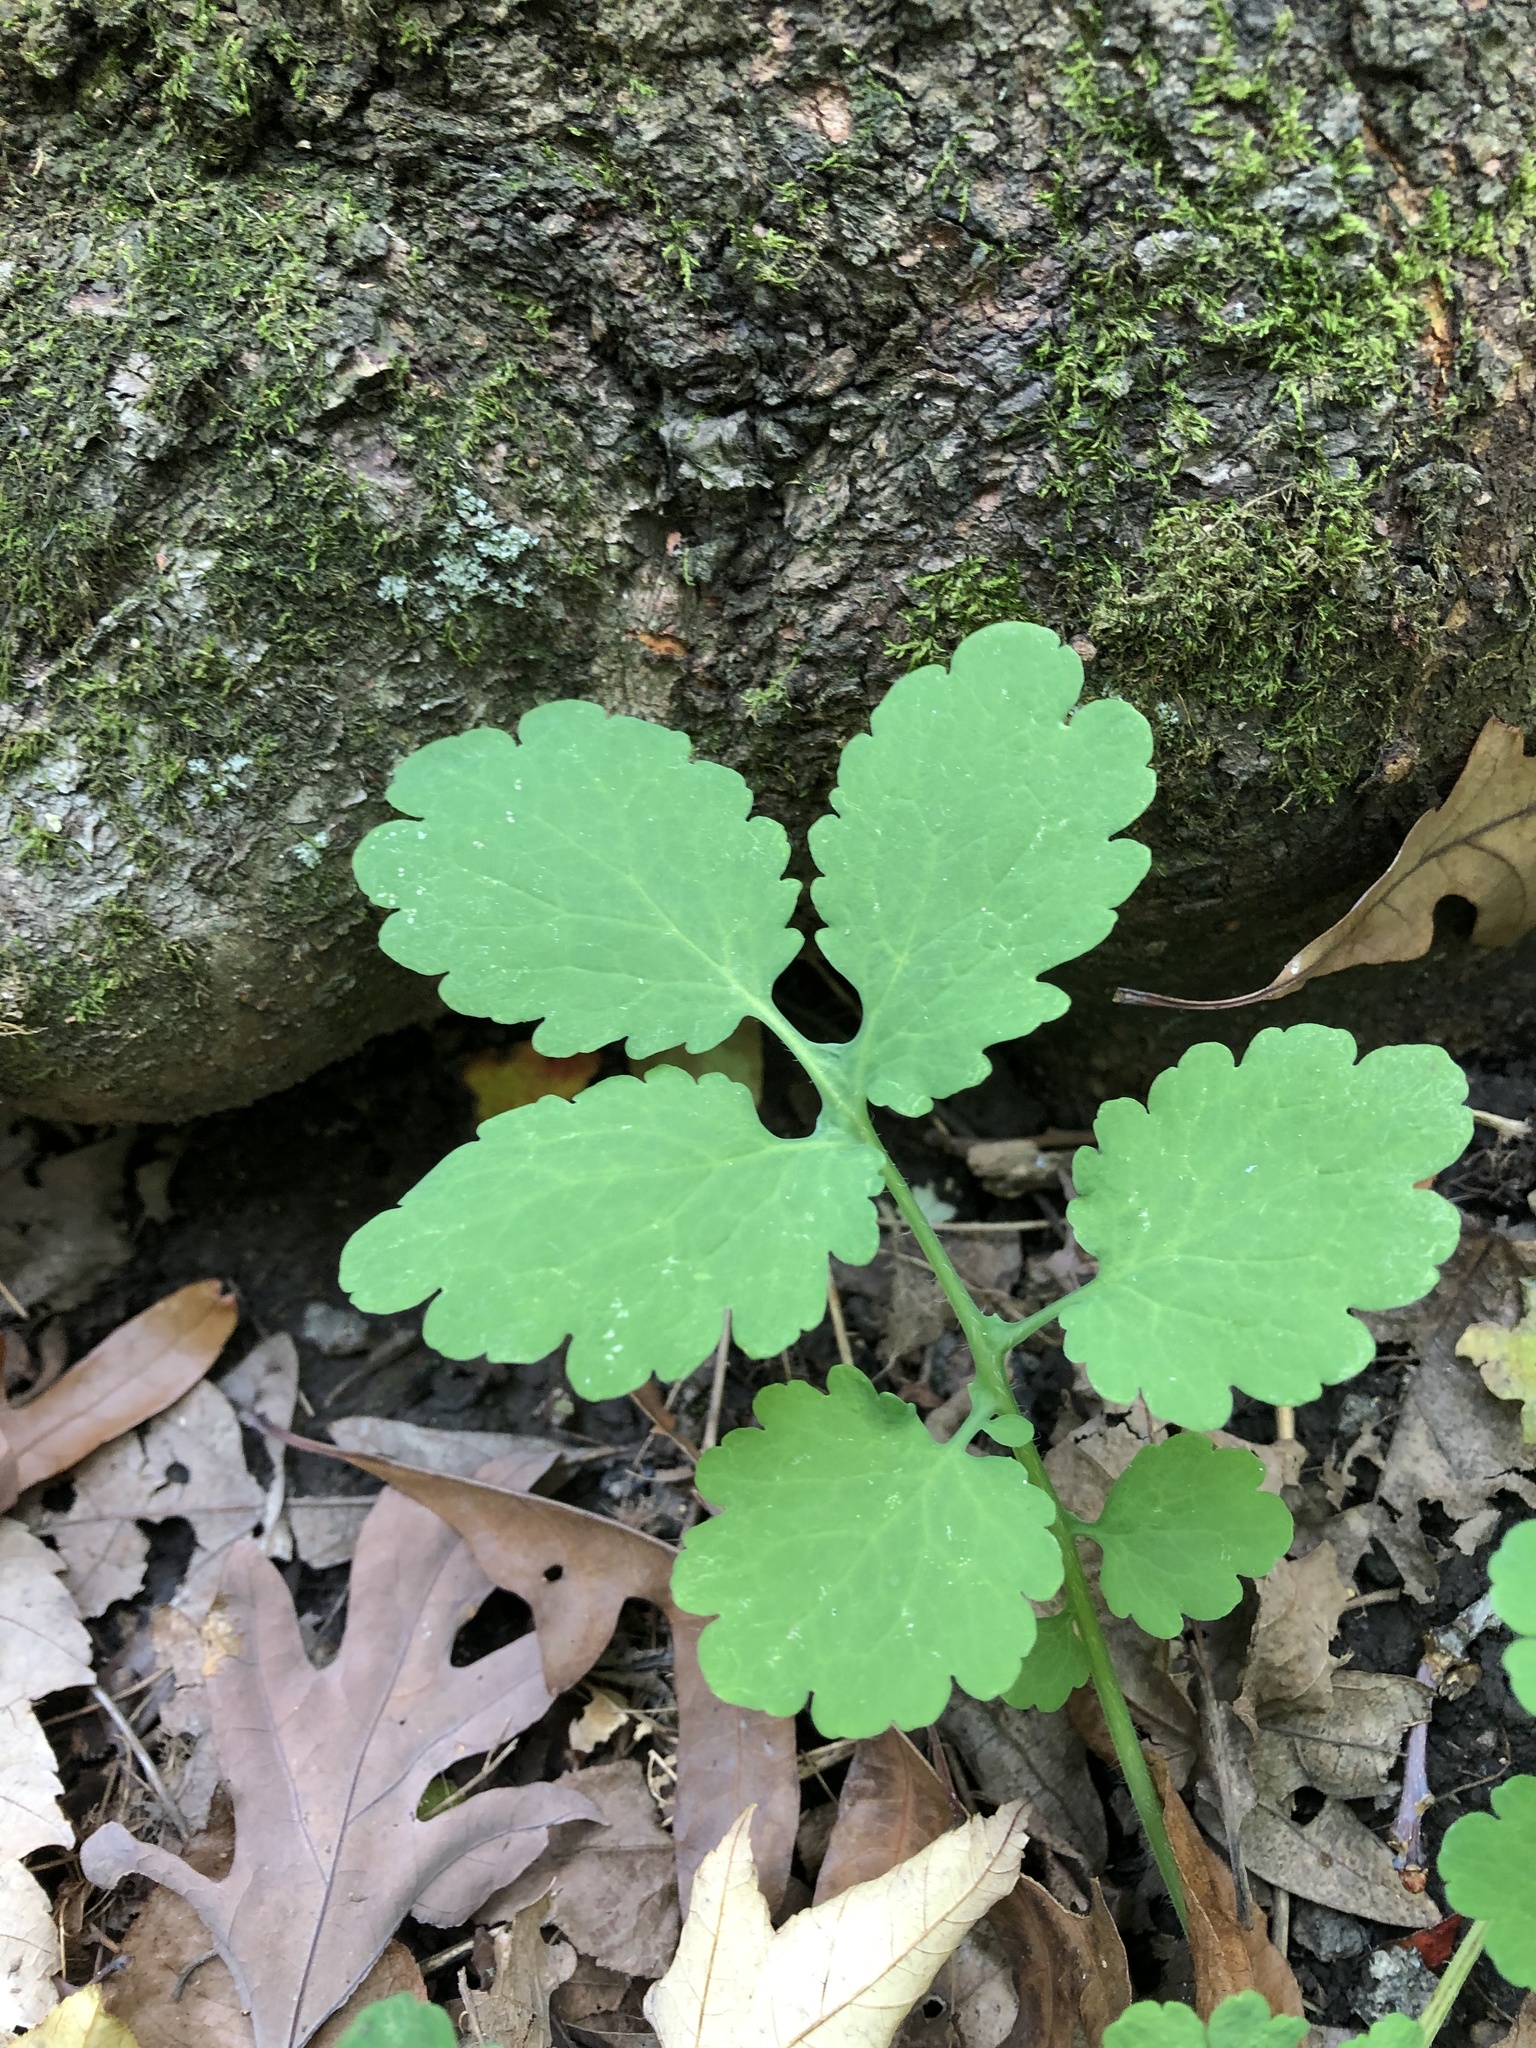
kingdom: Plantae
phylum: Tracheophyta
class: Magnoliopsida
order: Ranunculales
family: Papaveraceae
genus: Chelidonium
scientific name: Chelidonium majus
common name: Greater celandine
